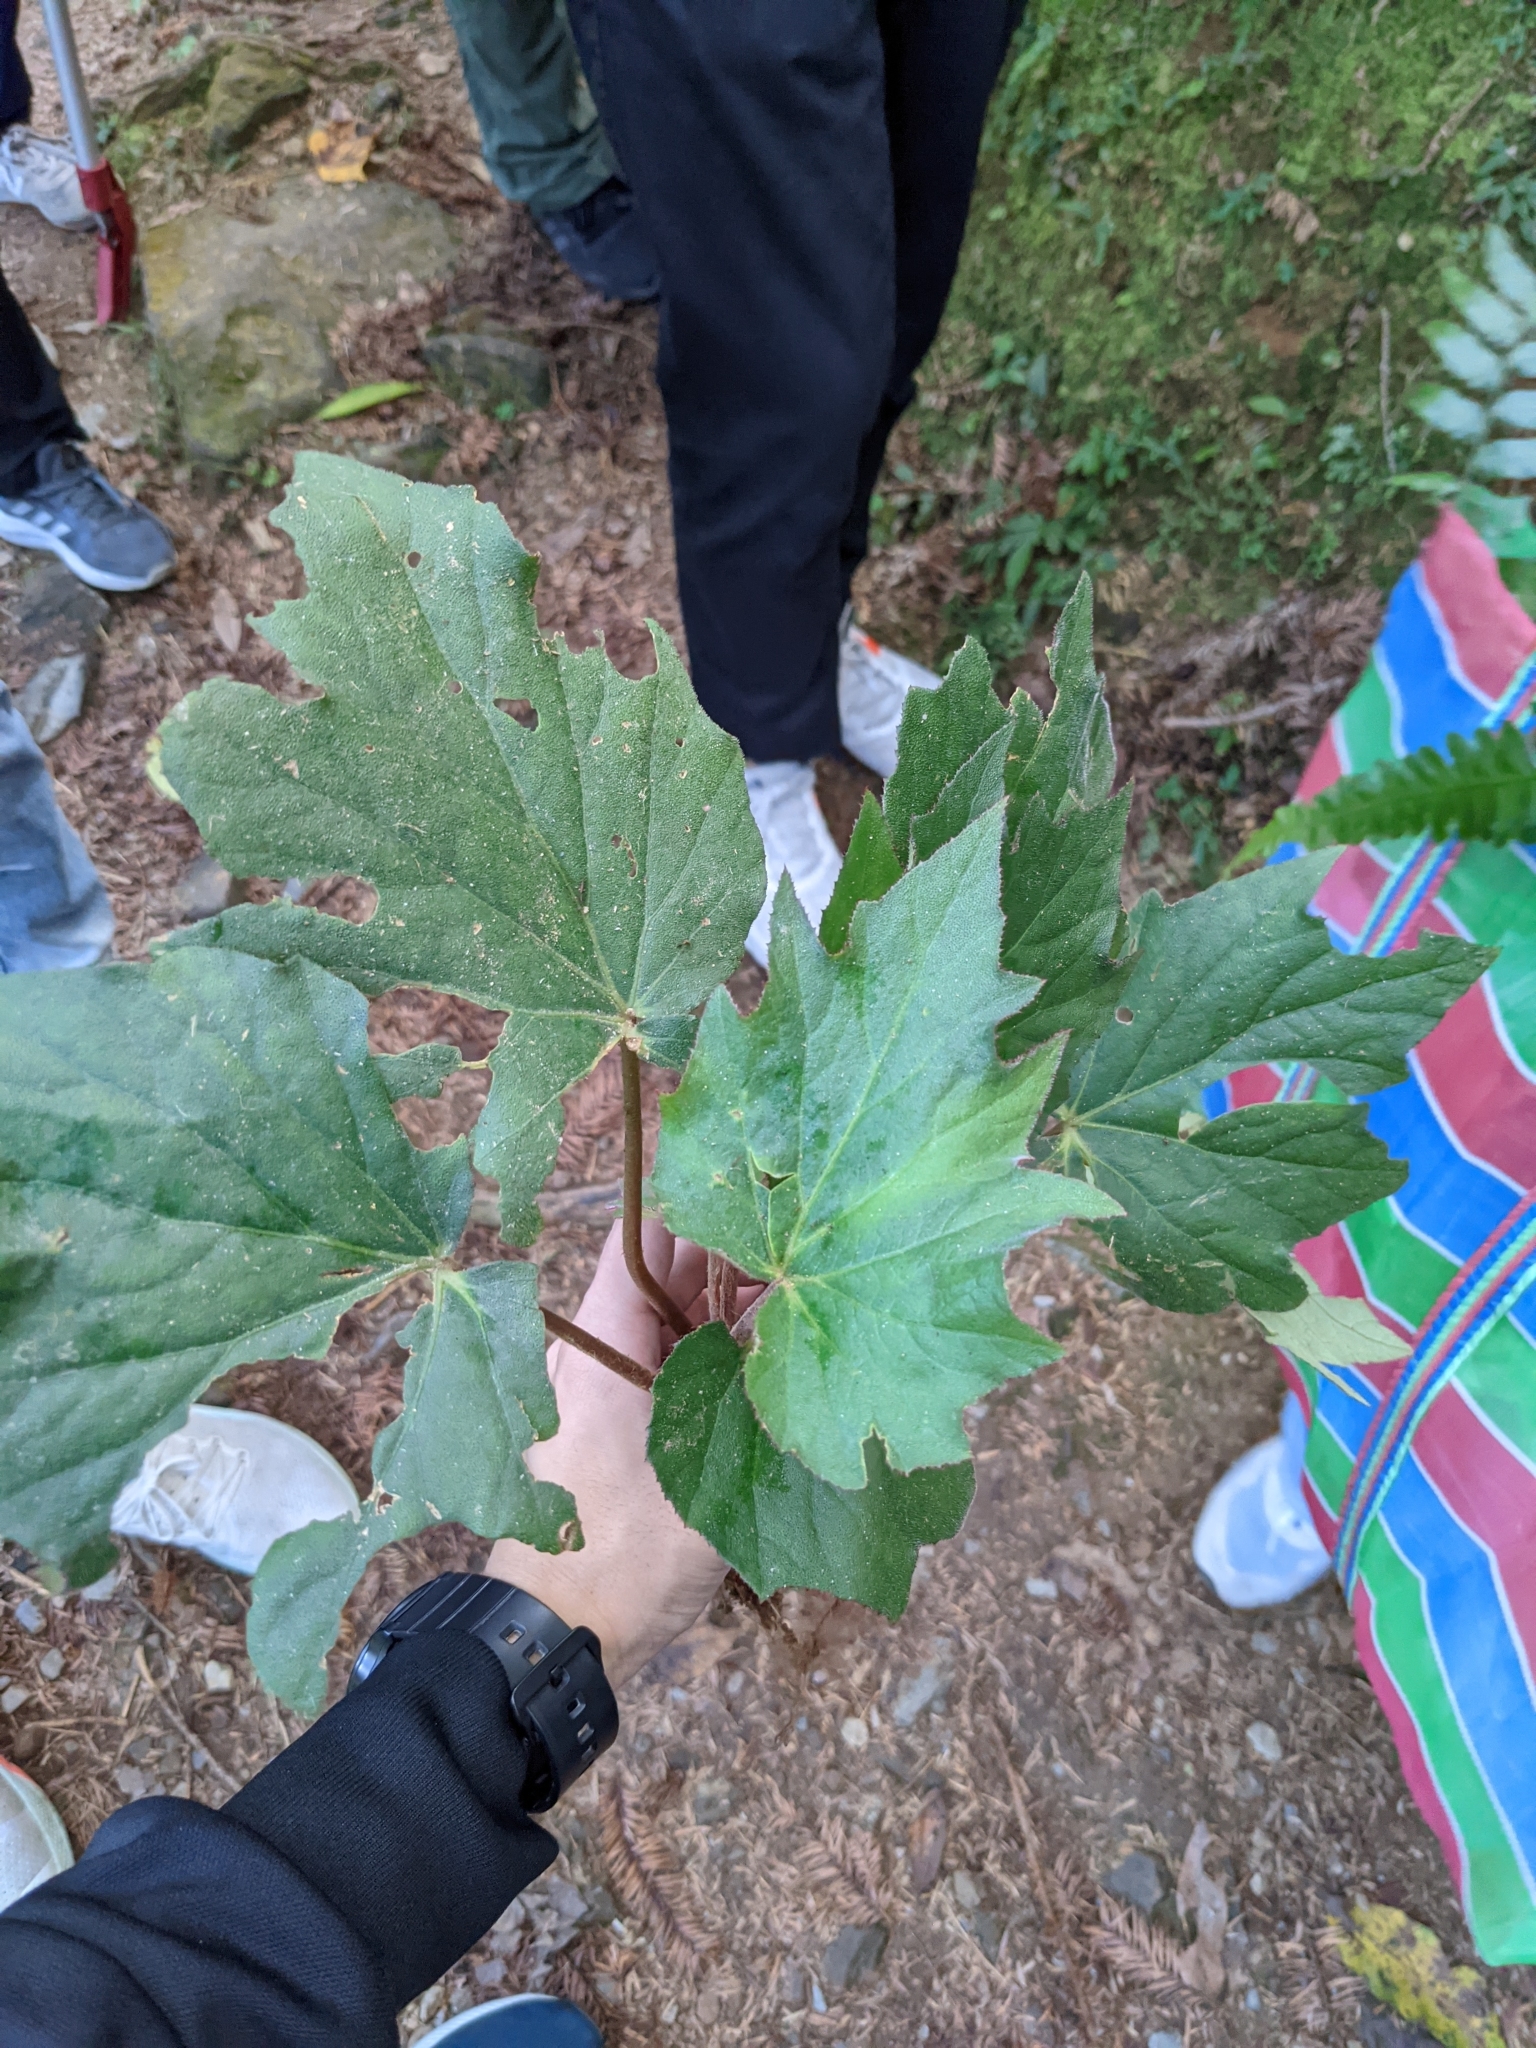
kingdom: Plantae
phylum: Tracheophyta
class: Magnoliopsida
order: Cucurbitales
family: Begoniaceae
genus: Begonia
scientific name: Begonia palmata
